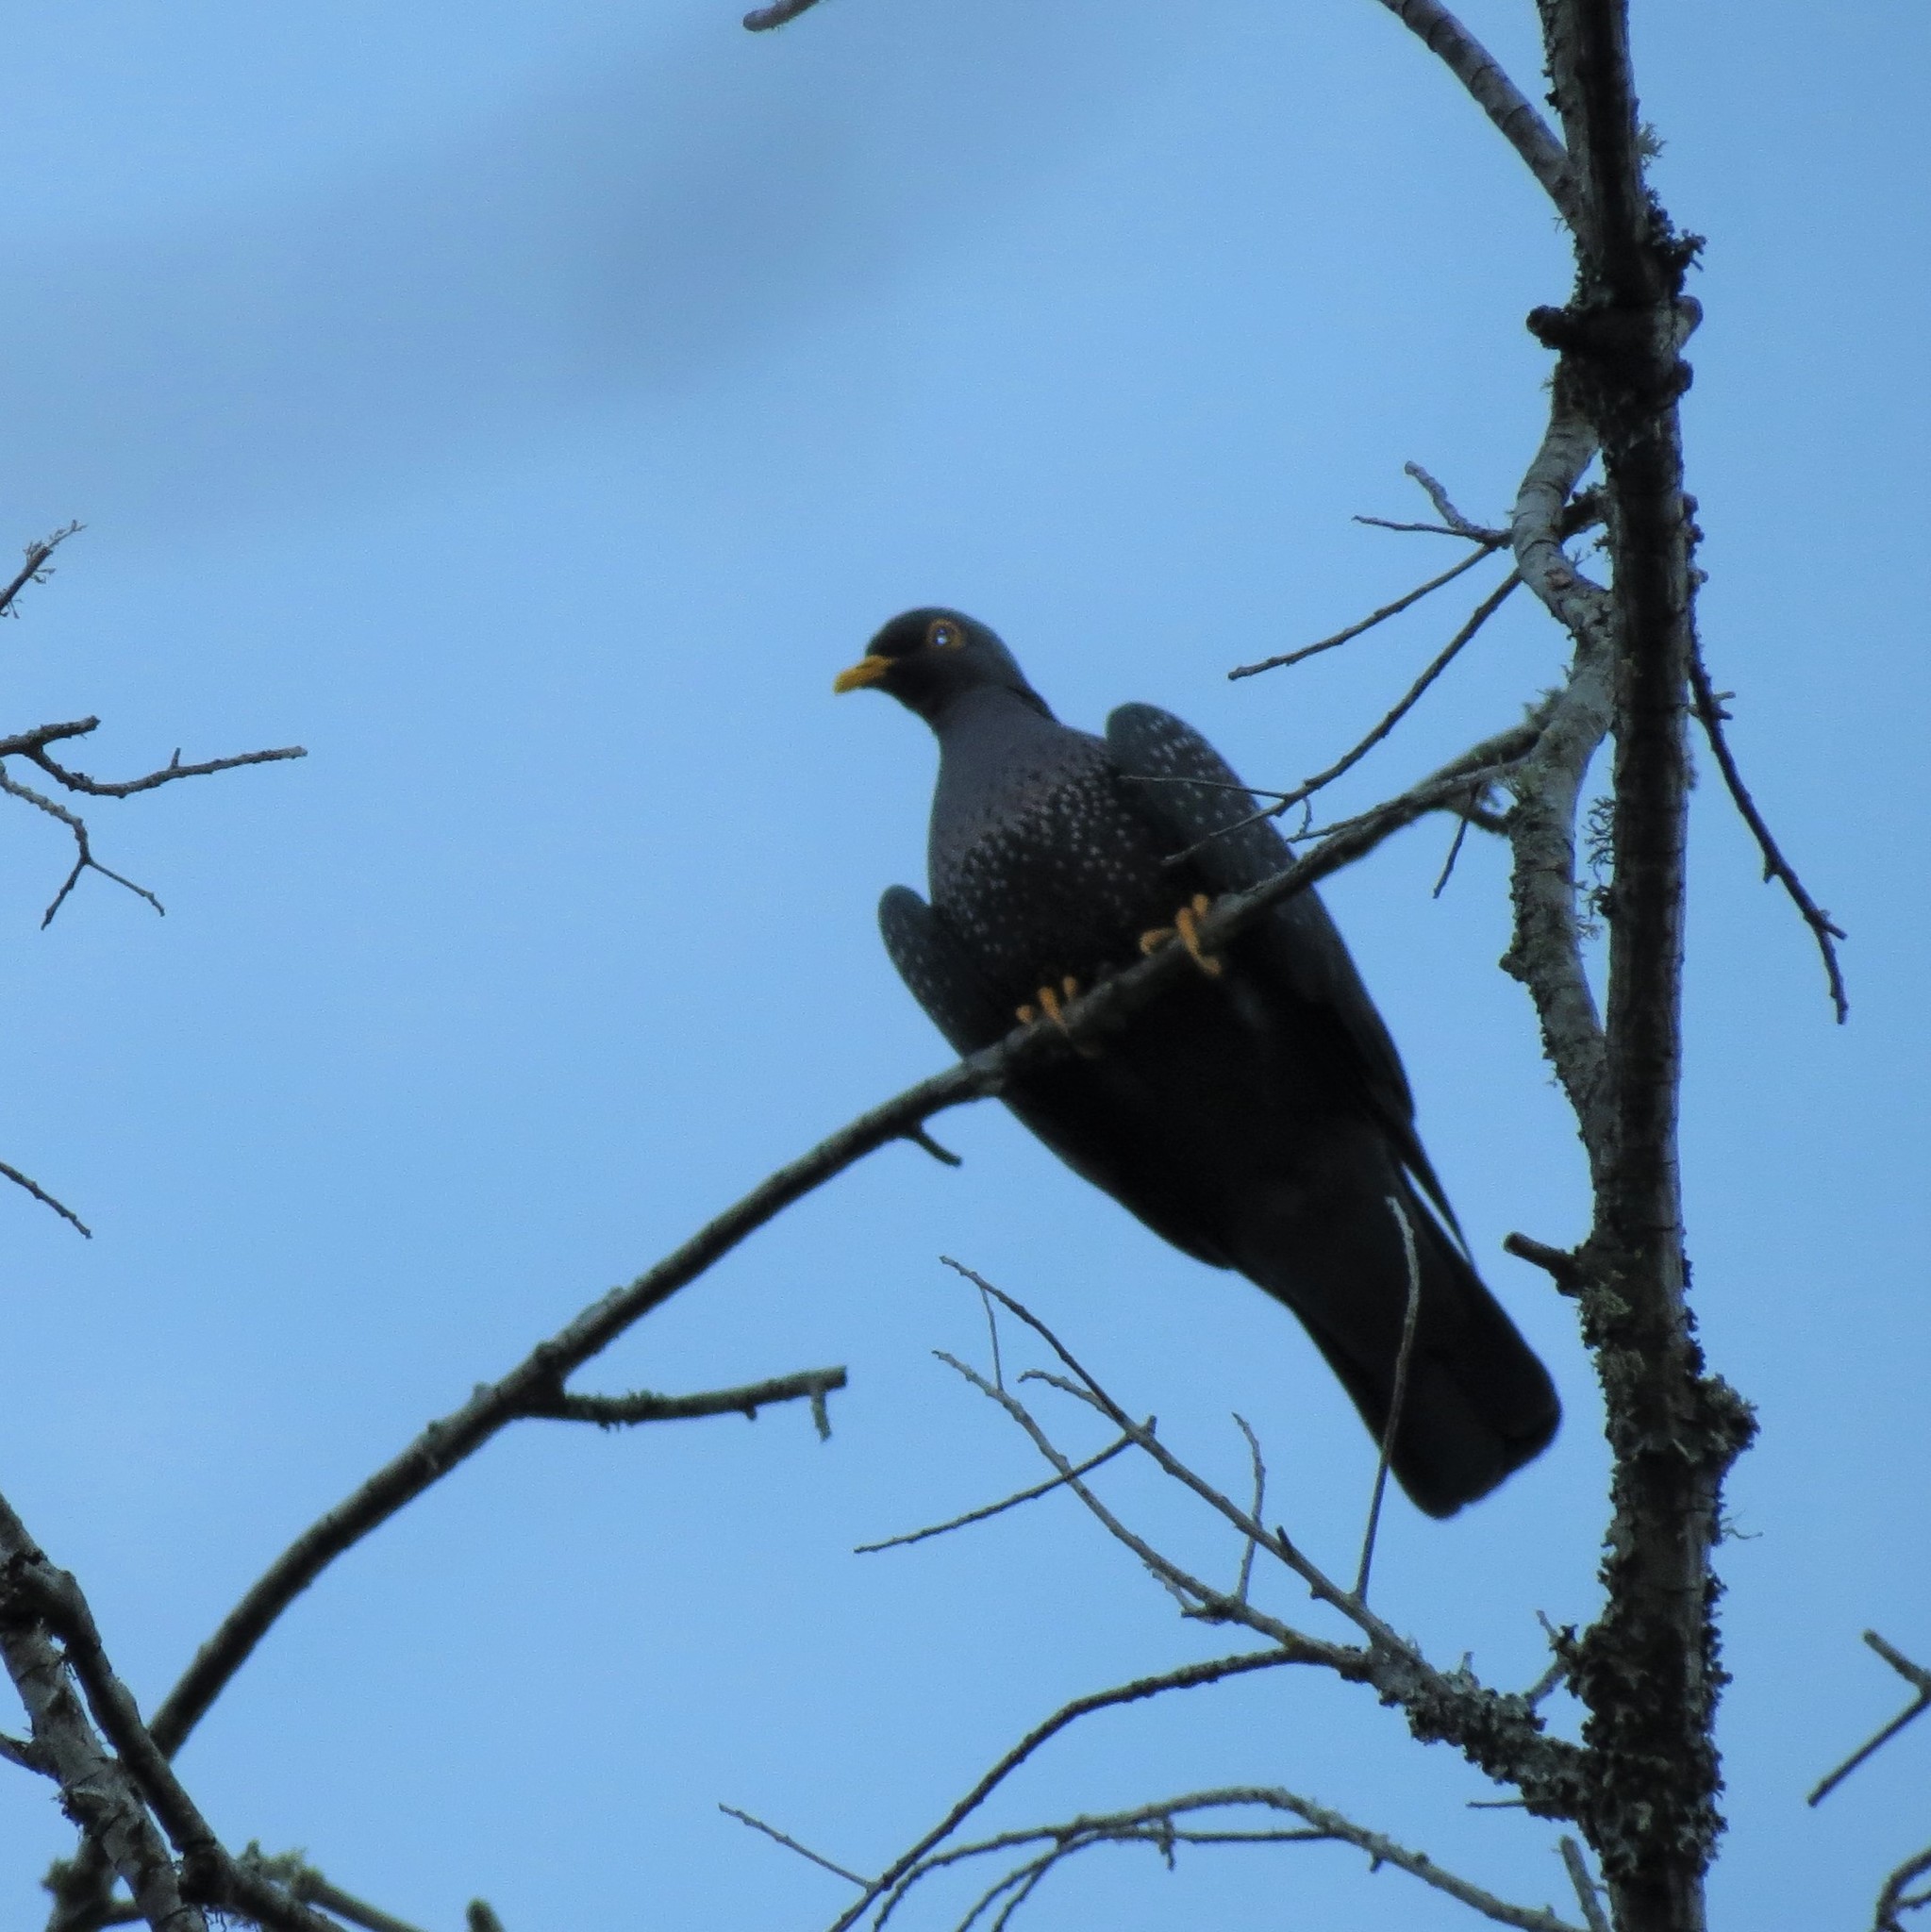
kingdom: Animalia
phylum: Chordata
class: Aves
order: Columbiformes
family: Columbidae
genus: Columba
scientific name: Columba arquatrix
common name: African olive pigeon
